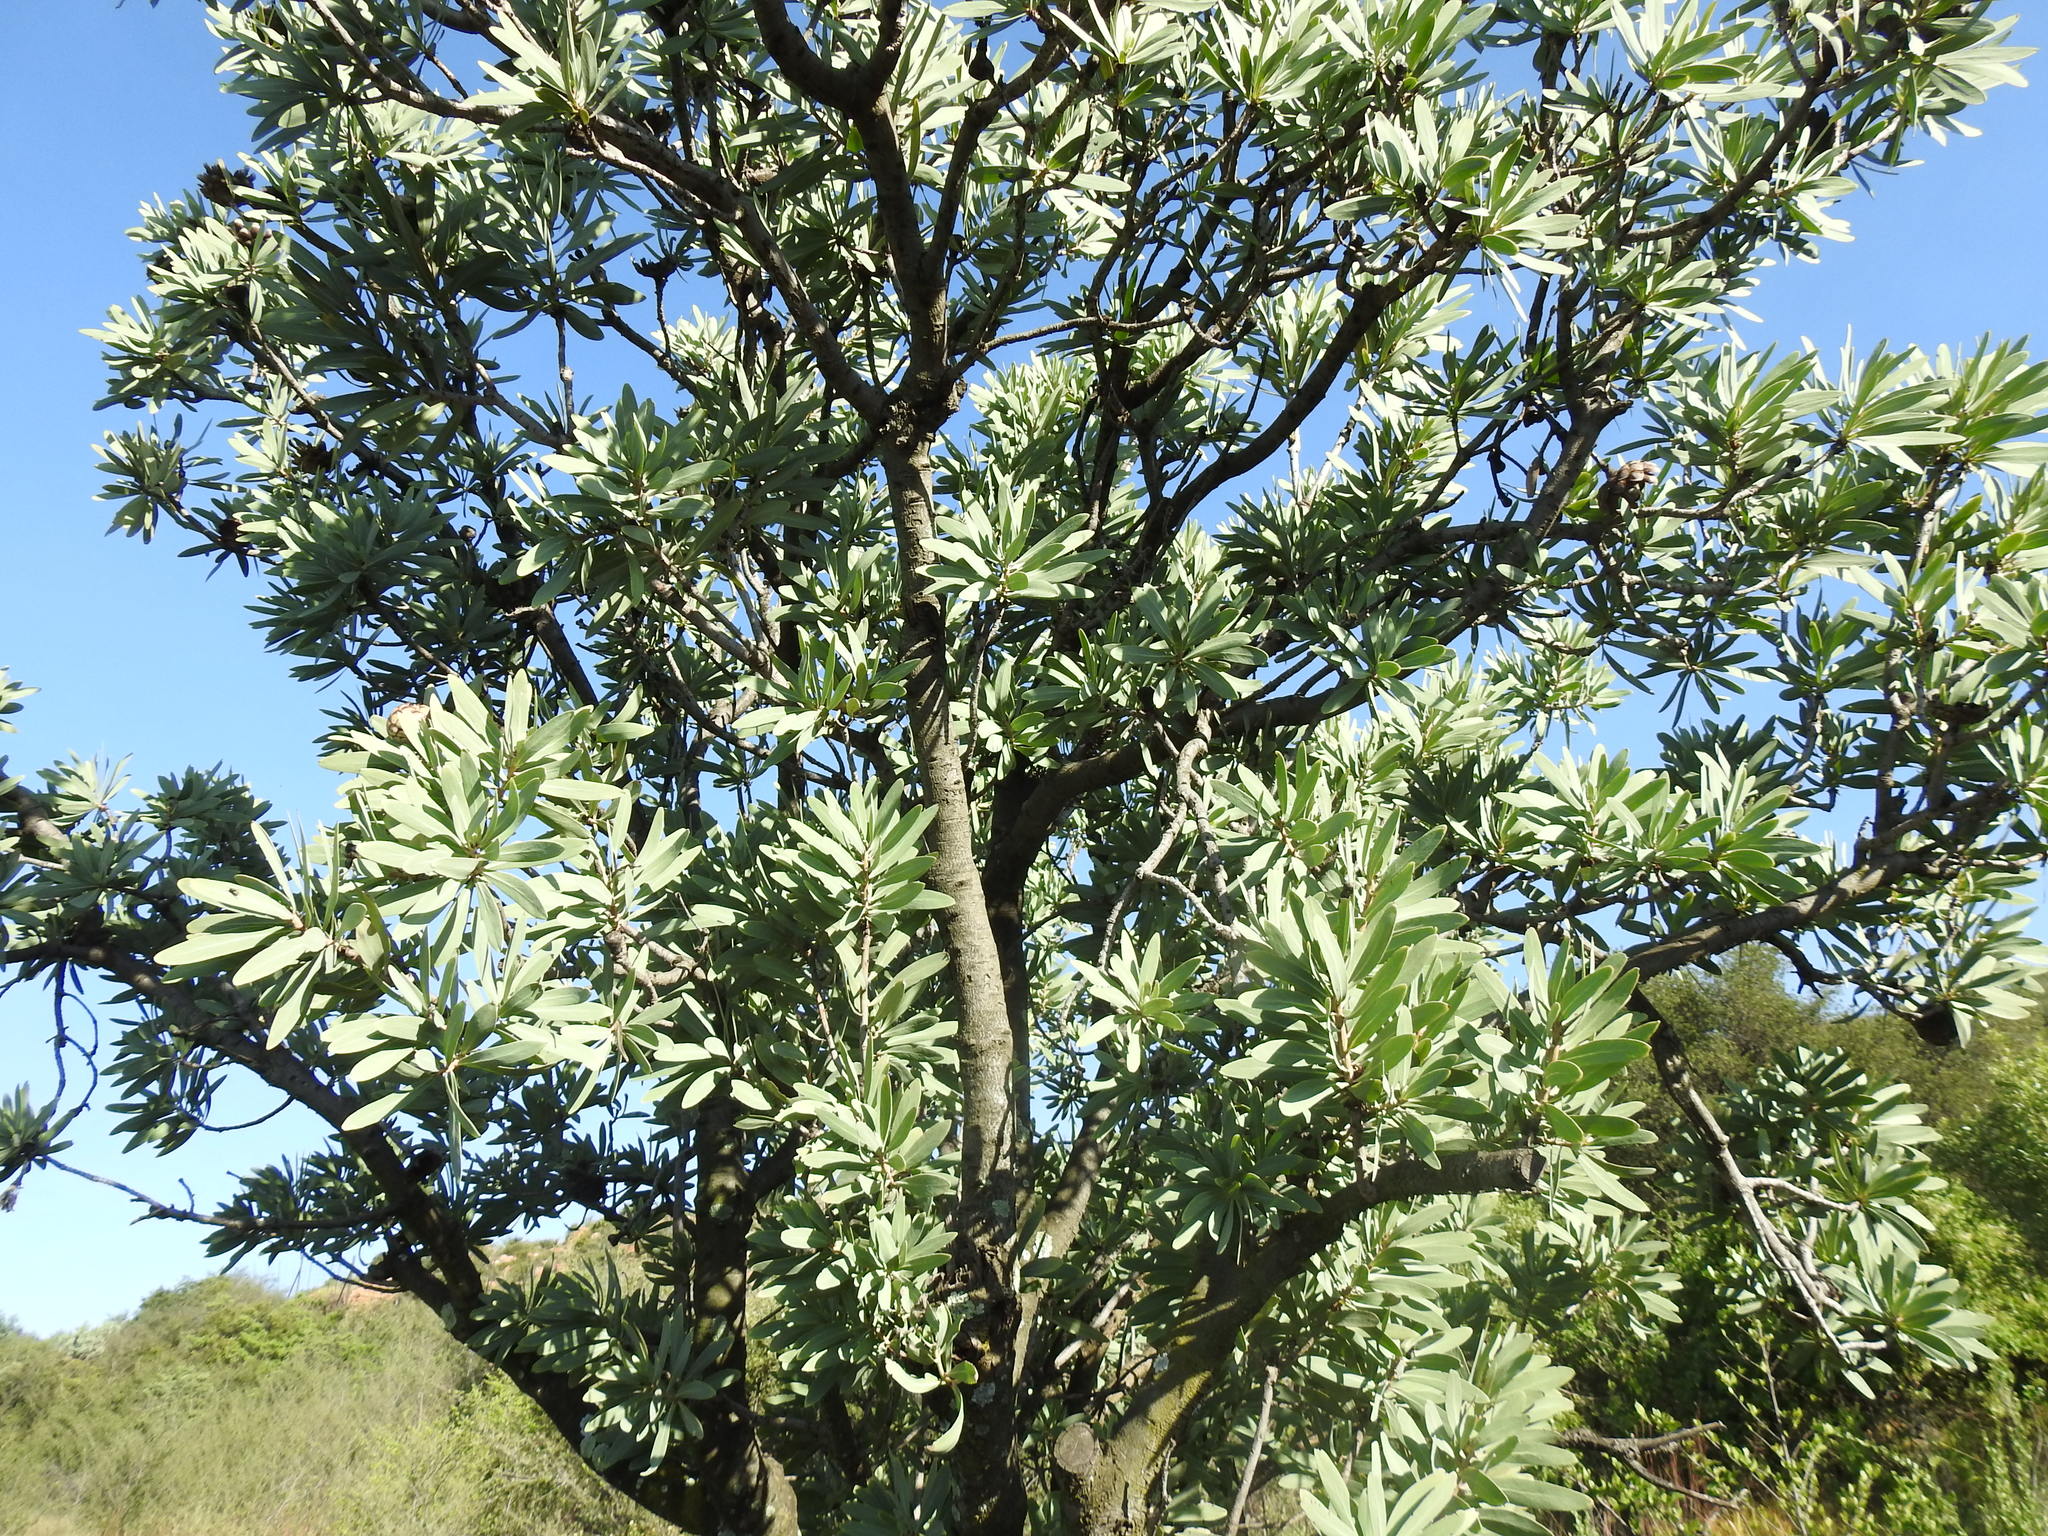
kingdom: Plantae
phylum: Tracheophyta
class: Magnoliopsida
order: Proteales
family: Proteaceae
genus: Protea
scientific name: Protea caffra
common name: Common sugarbush
